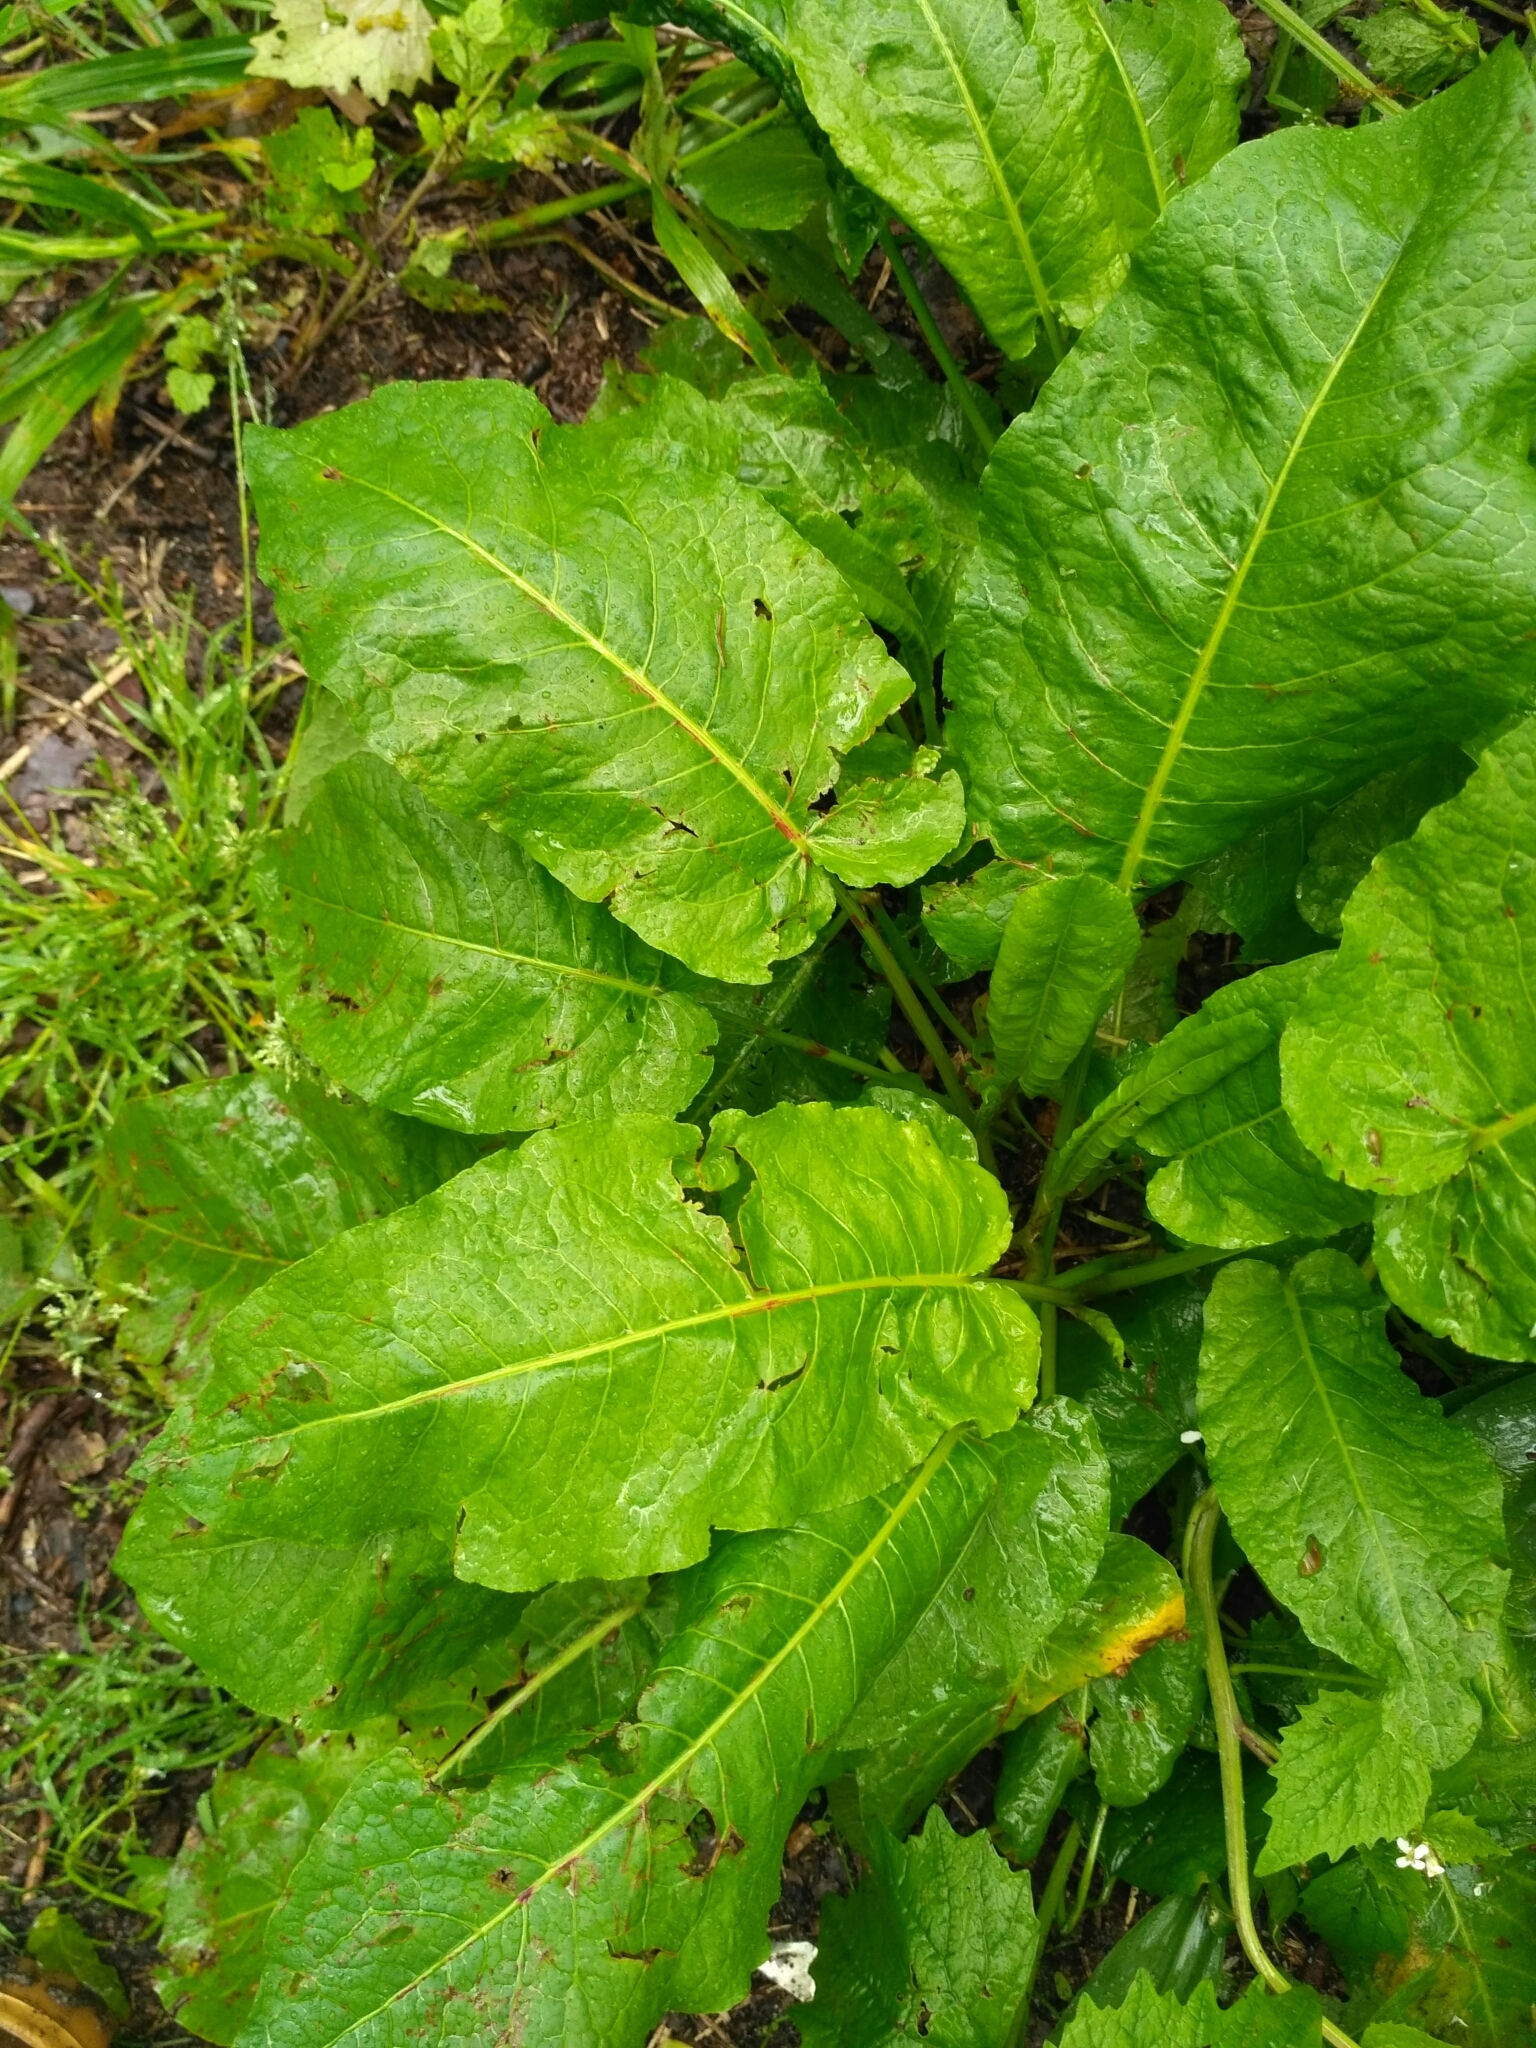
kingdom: Plantae
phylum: Tracheophyta
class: Magnoliopsida
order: Caryophyllales
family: Polygonaceae
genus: Rumex
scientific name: Rumex obtusifolius
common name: Bitter dock
